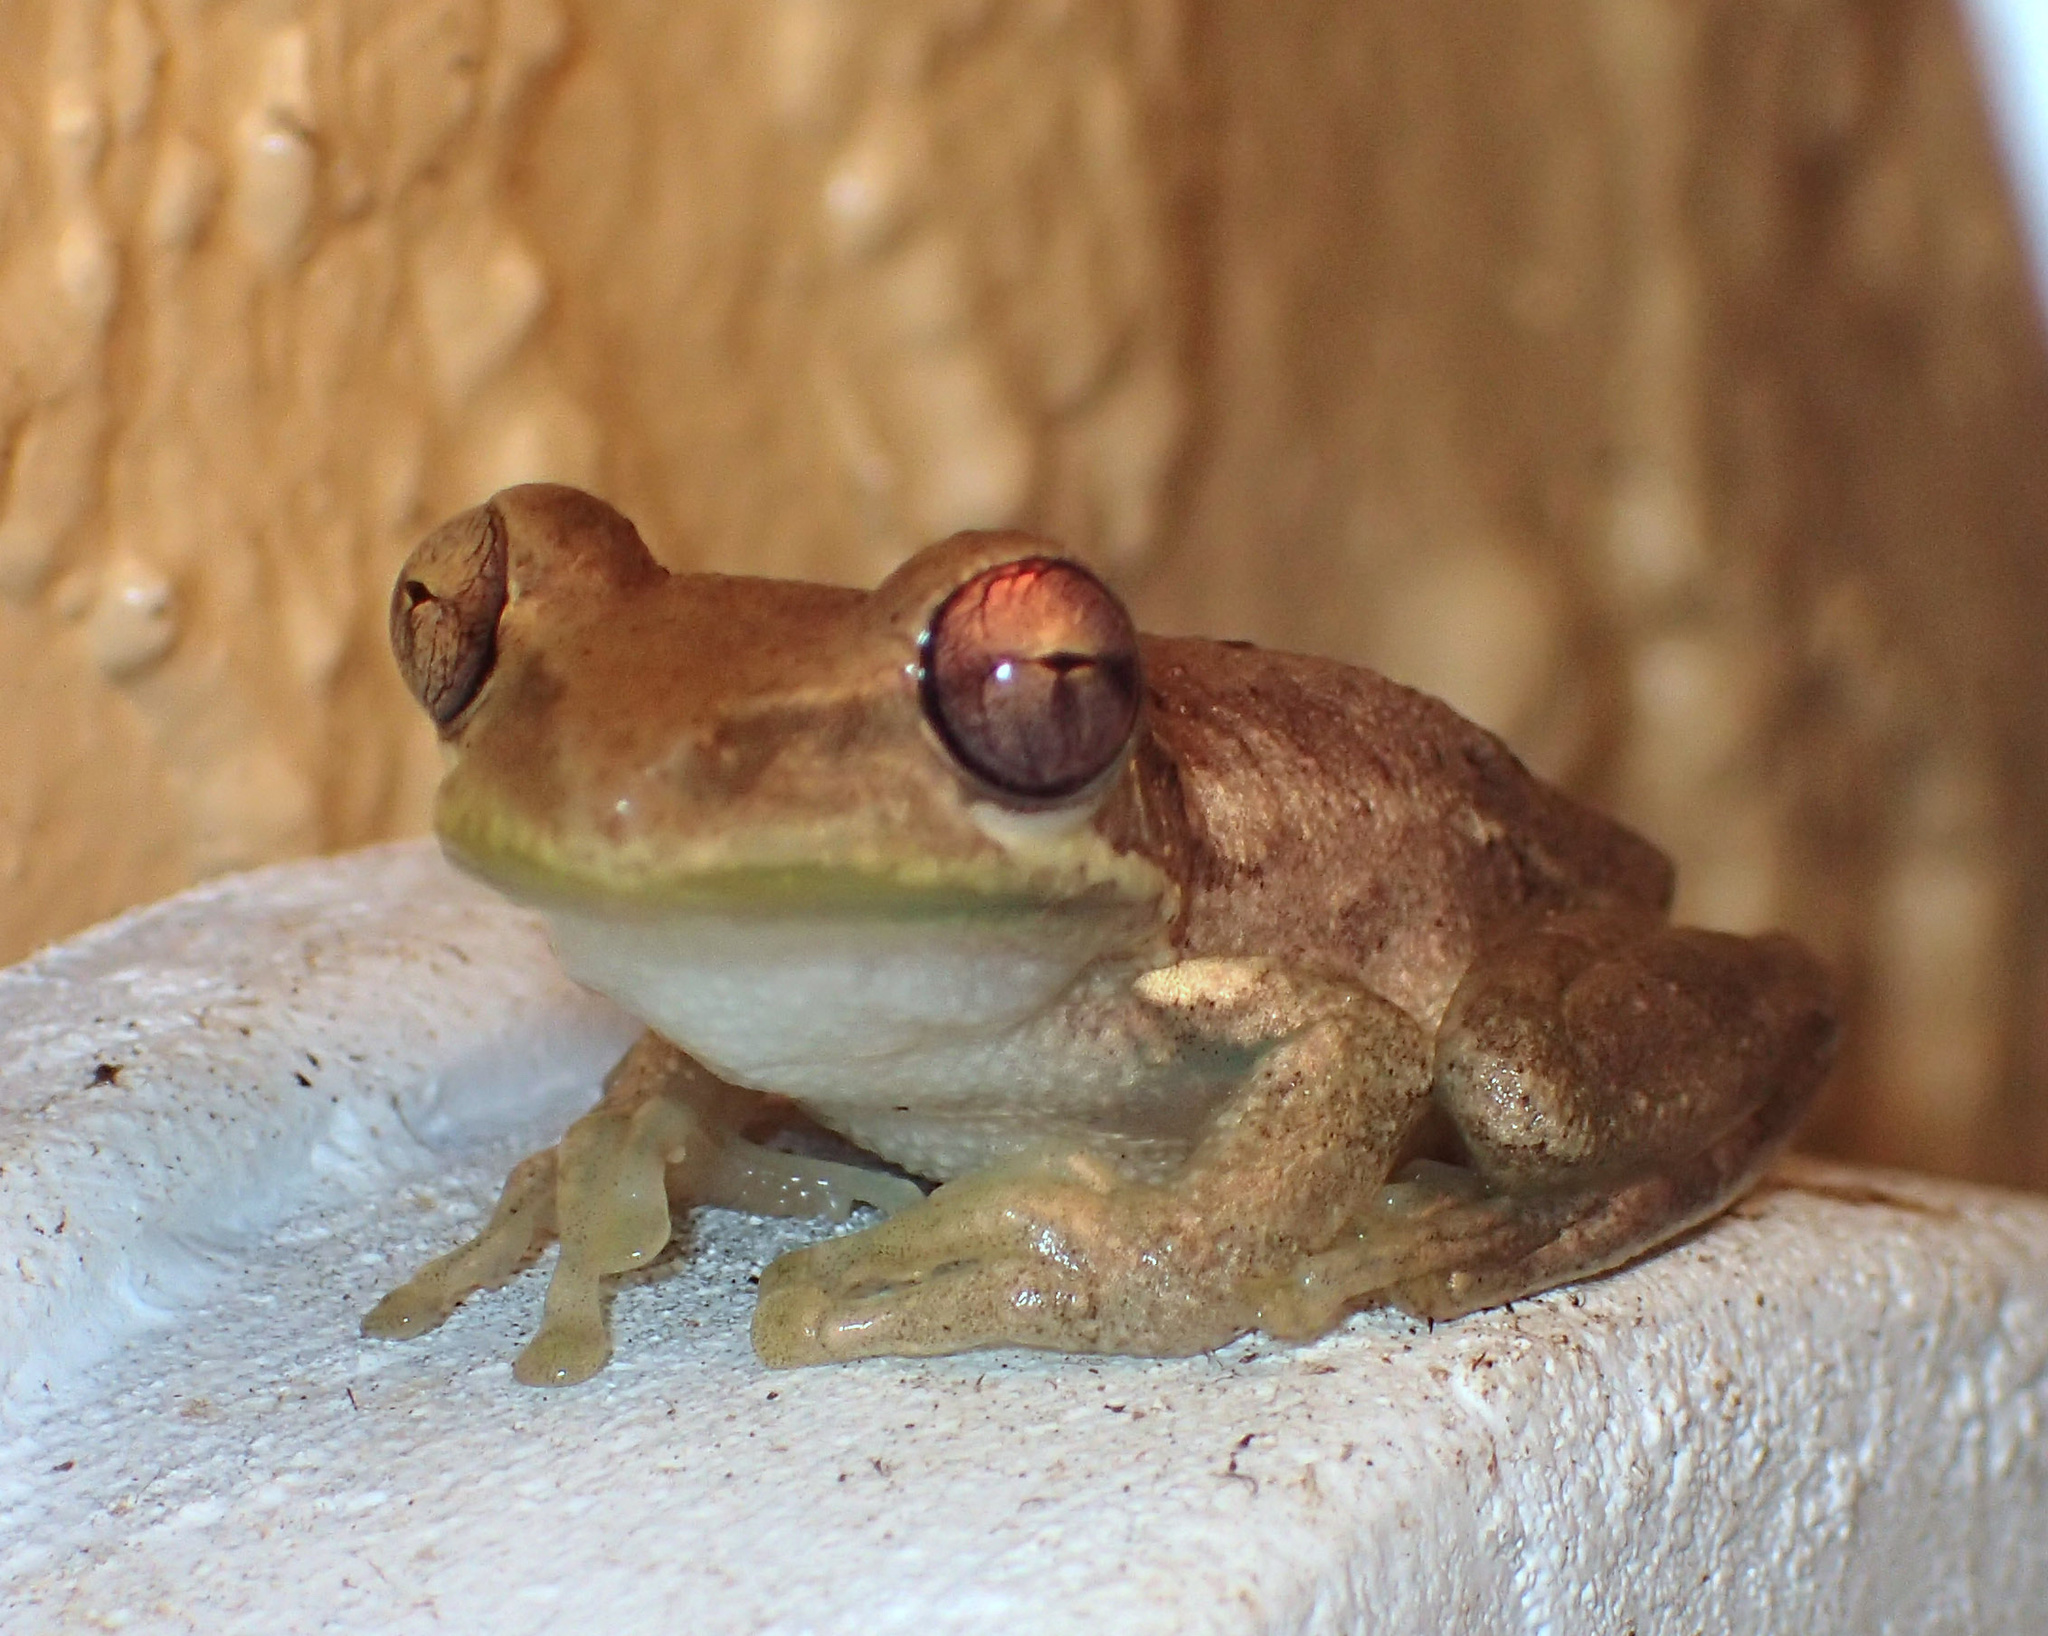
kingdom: Animalia
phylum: Chordata
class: Amphibia
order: Anura
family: Hylidae
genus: Osteopilus
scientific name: Osteopilus septentrionalis
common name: Cuban treefrog
